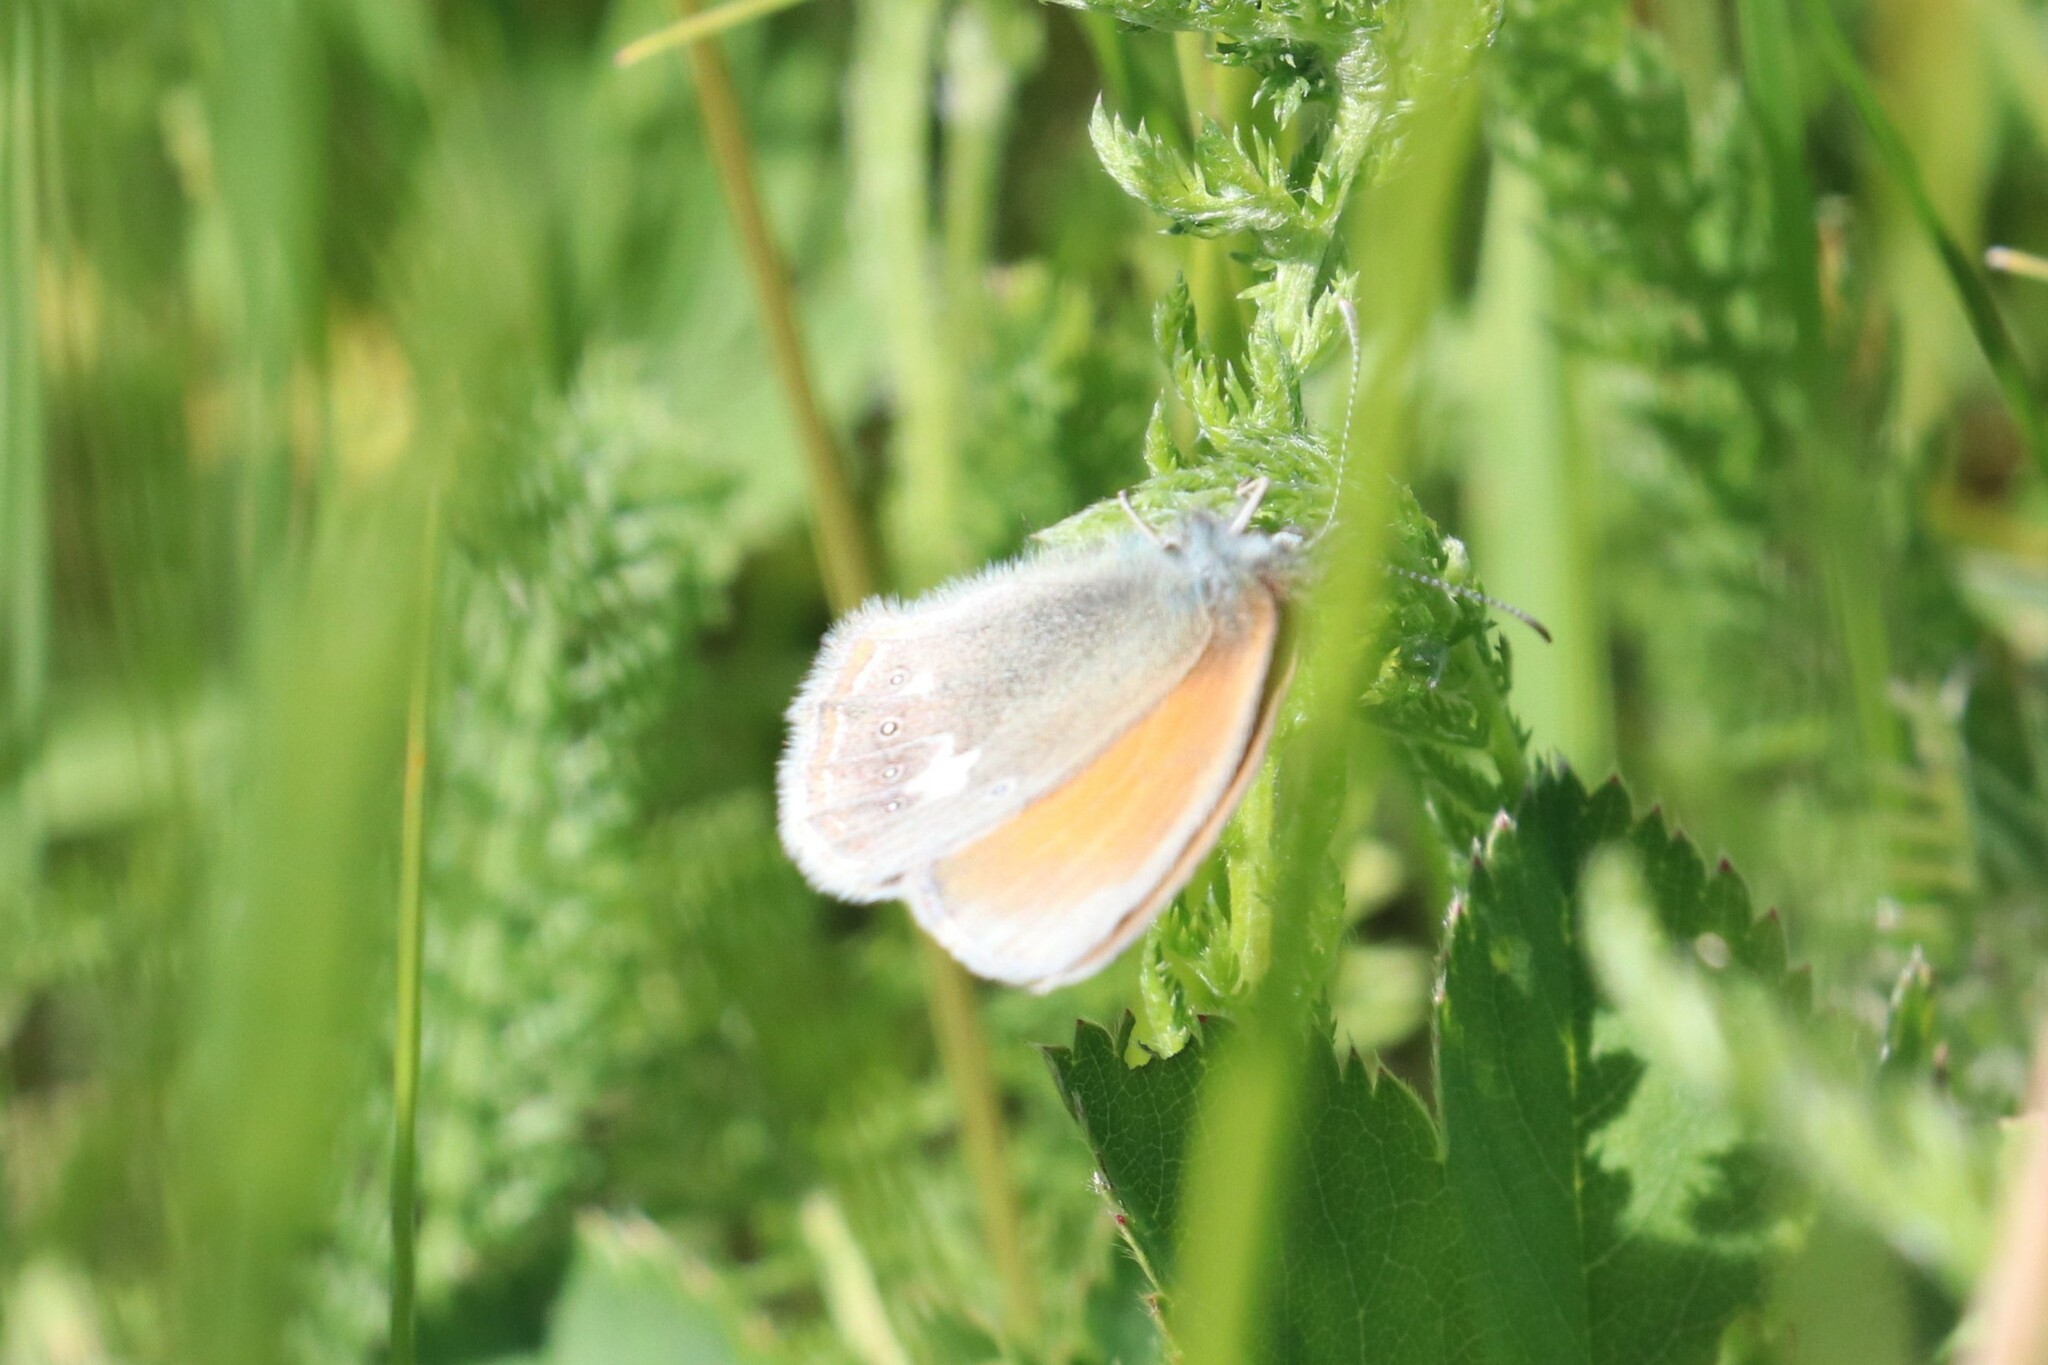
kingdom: Animalia
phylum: Arthropoda
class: Insecta
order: Lepidoptera
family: Nymphalidae
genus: Coenonympha
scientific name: Coenonympha iphis
